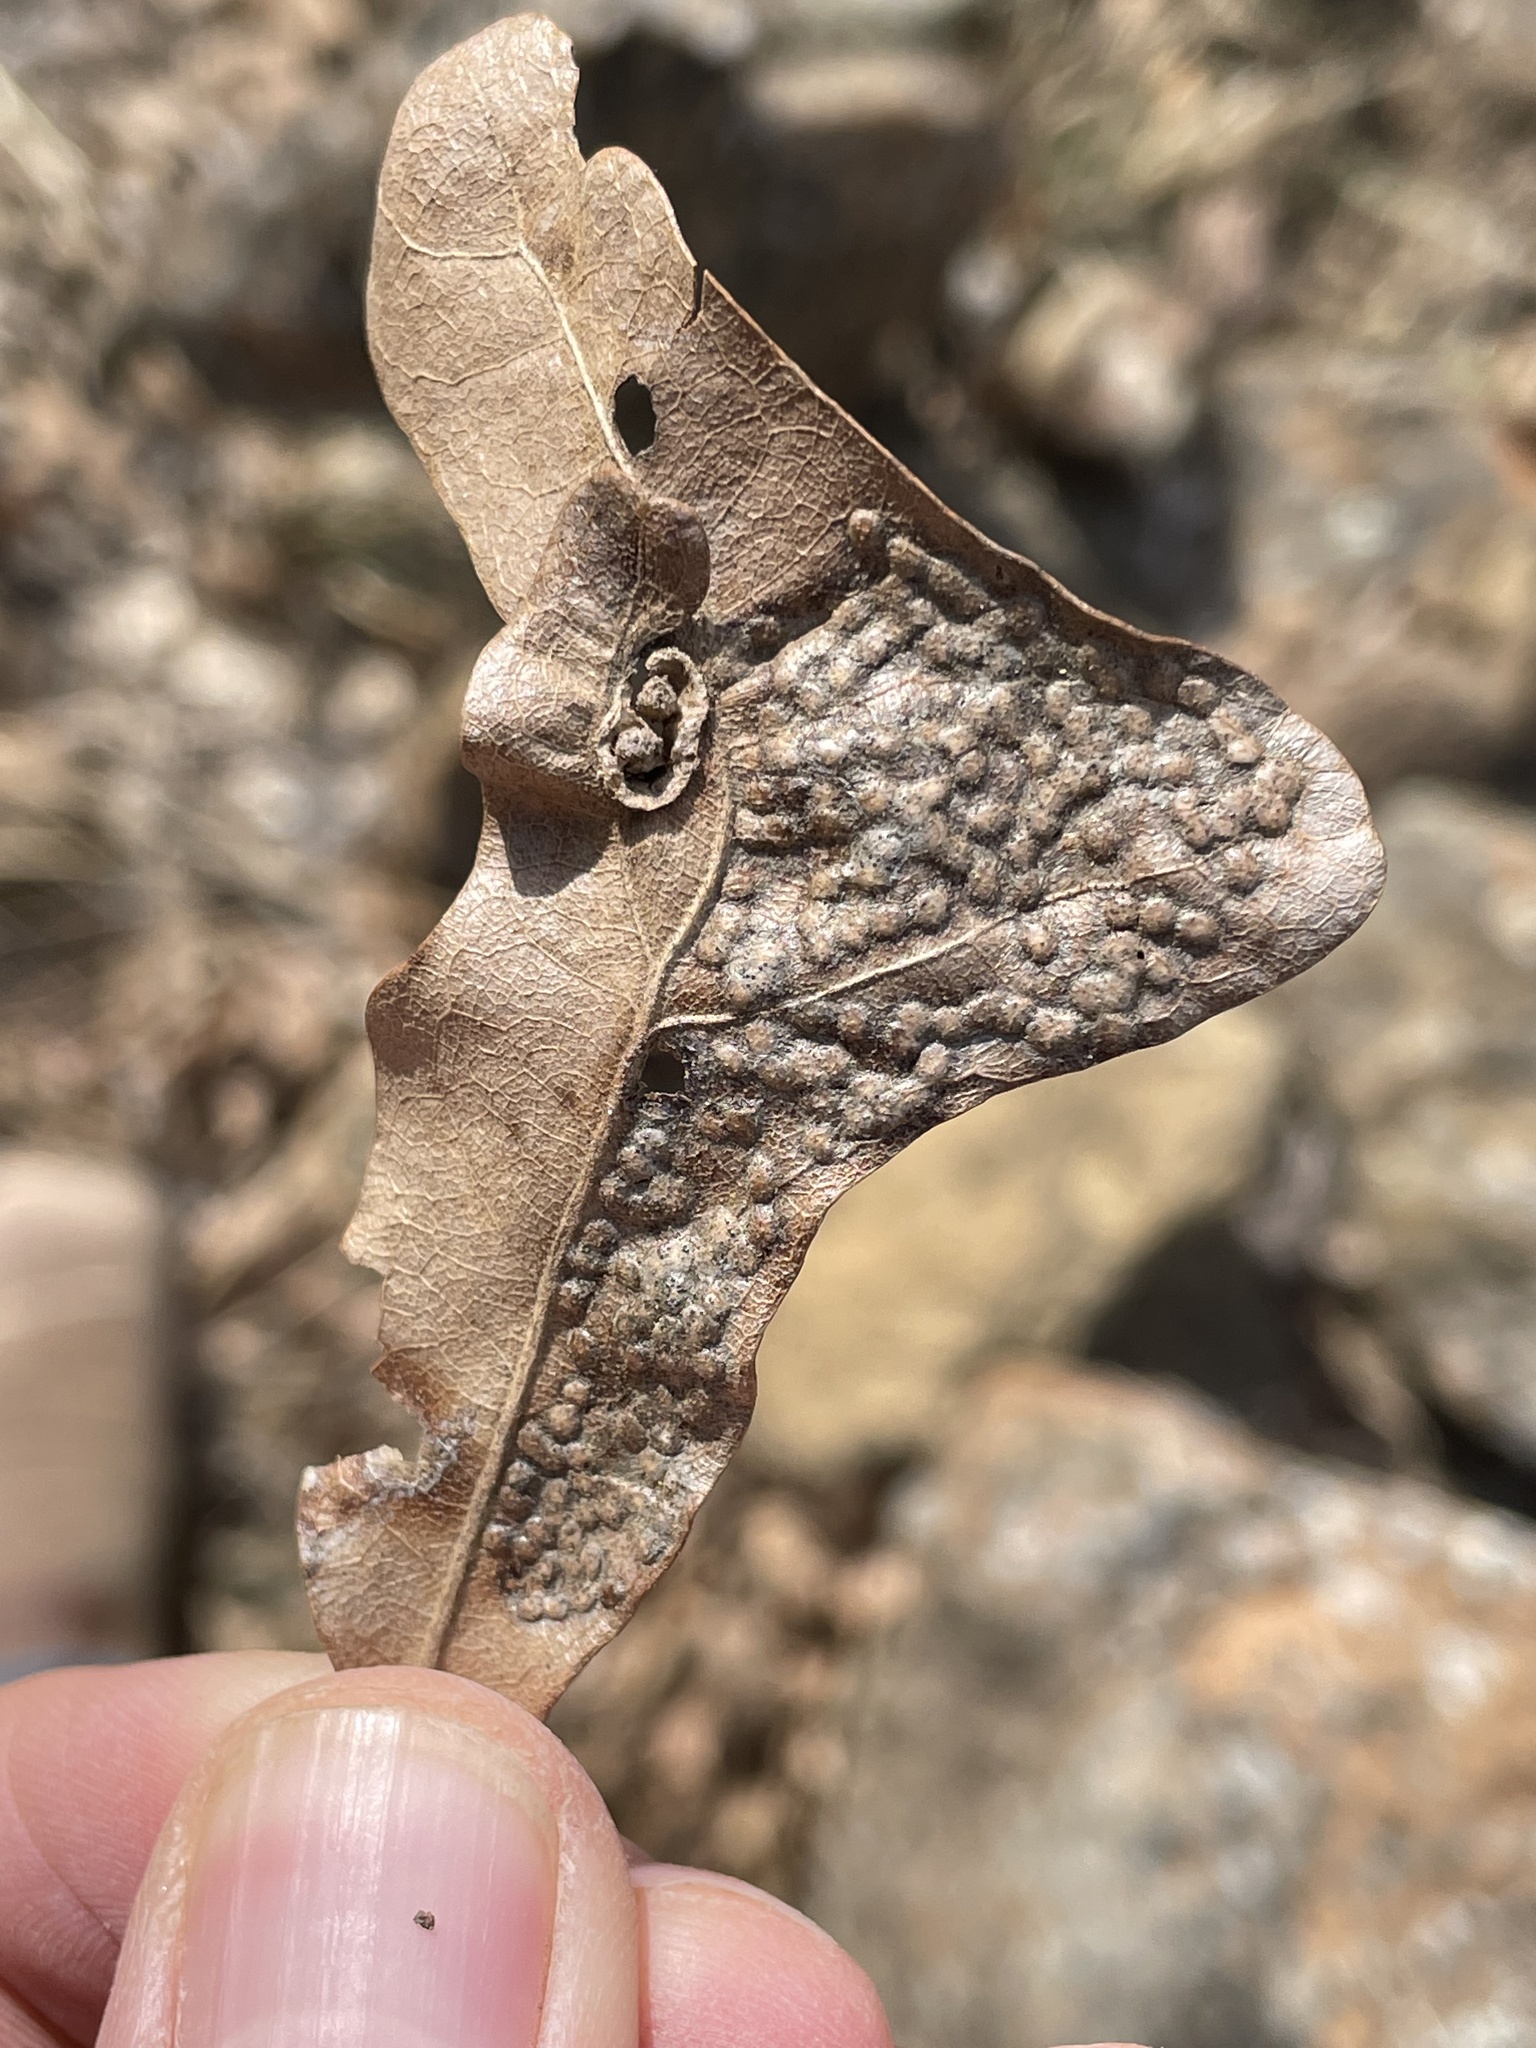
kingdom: Animalia
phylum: Arthropoda
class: Insecta
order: Hymenoptera
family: Cynipidae
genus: Neuroterus
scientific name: Neuroterus niger
